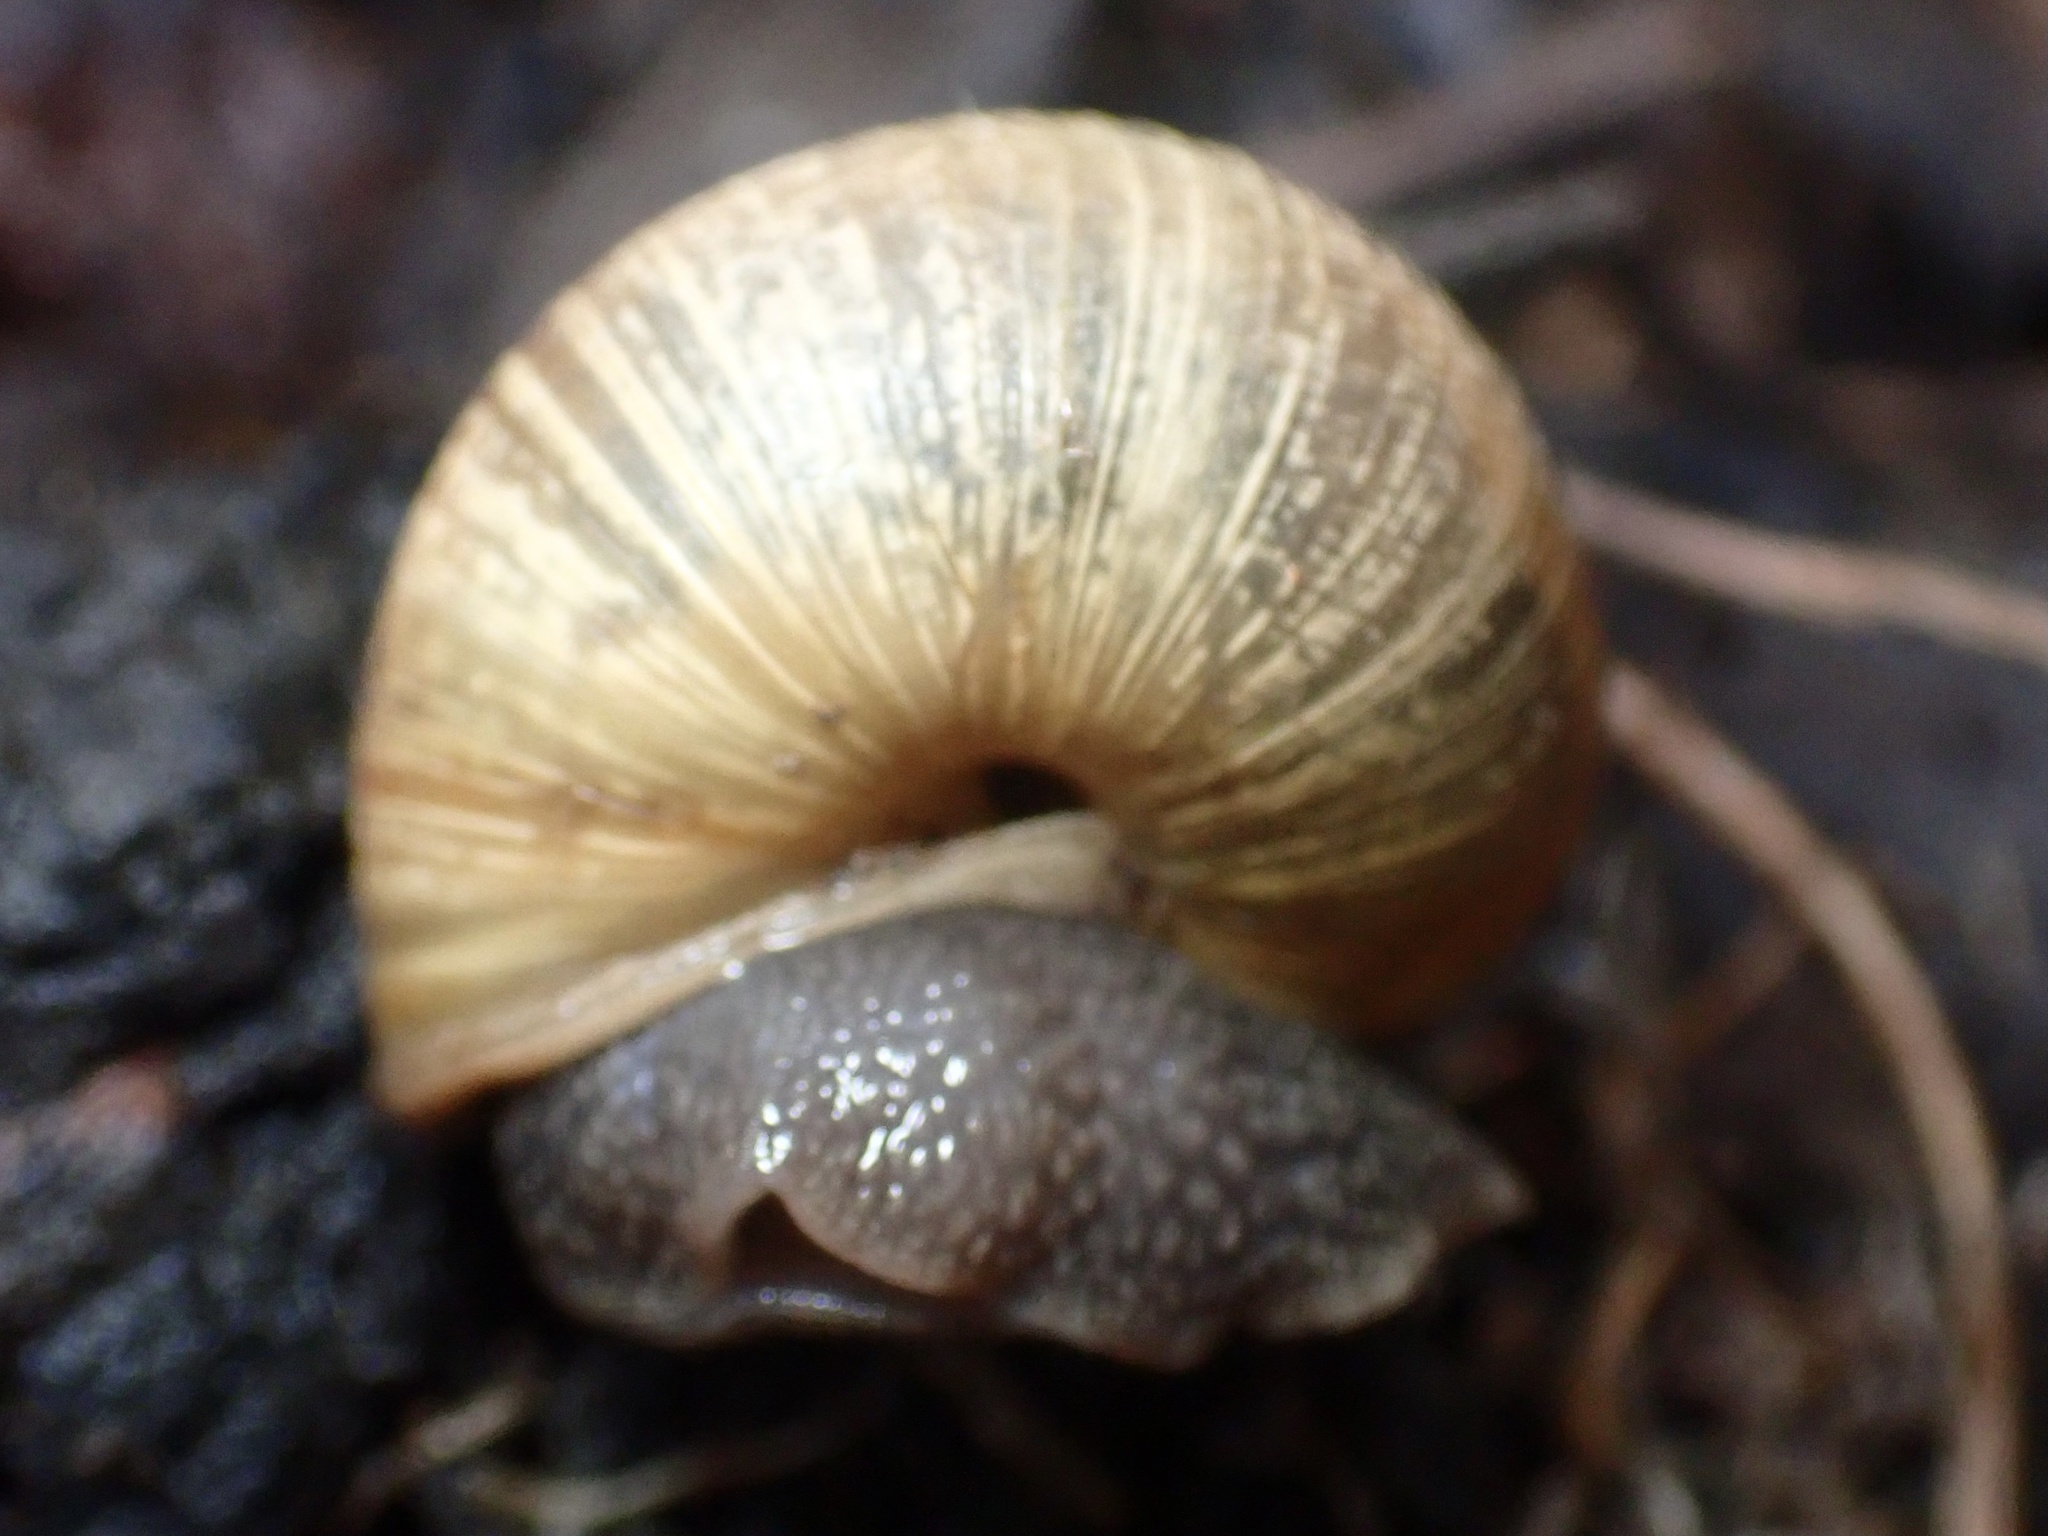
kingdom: Animalia
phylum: Mollusca
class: Gastropoda
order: Stylommatophora
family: Xanthonychidae
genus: Helminthoglypta
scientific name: Helminthoglypta nickliniana
